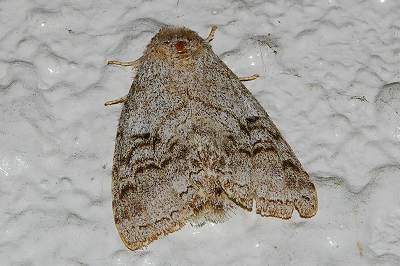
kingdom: Animalia
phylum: Arthropoda
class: Insecta
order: Lepidoptera
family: Notodontidae
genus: Mesophalera
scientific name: Mesophalera sigmata
